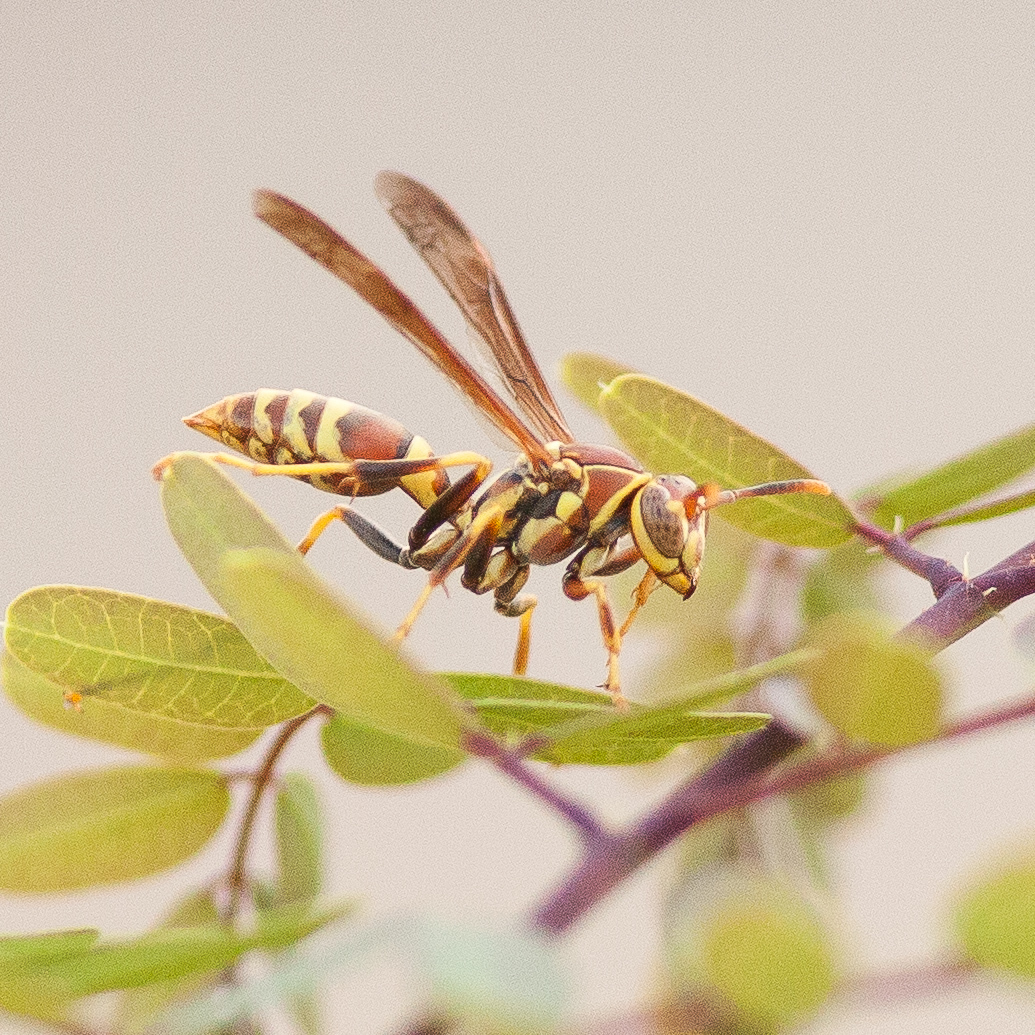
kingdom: Animalia
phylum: Arthropoda
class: Insecta
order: Hymenoptera
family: Eumenidae
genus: Polistes
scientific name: Polistes exclamans
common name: Paper wasp
